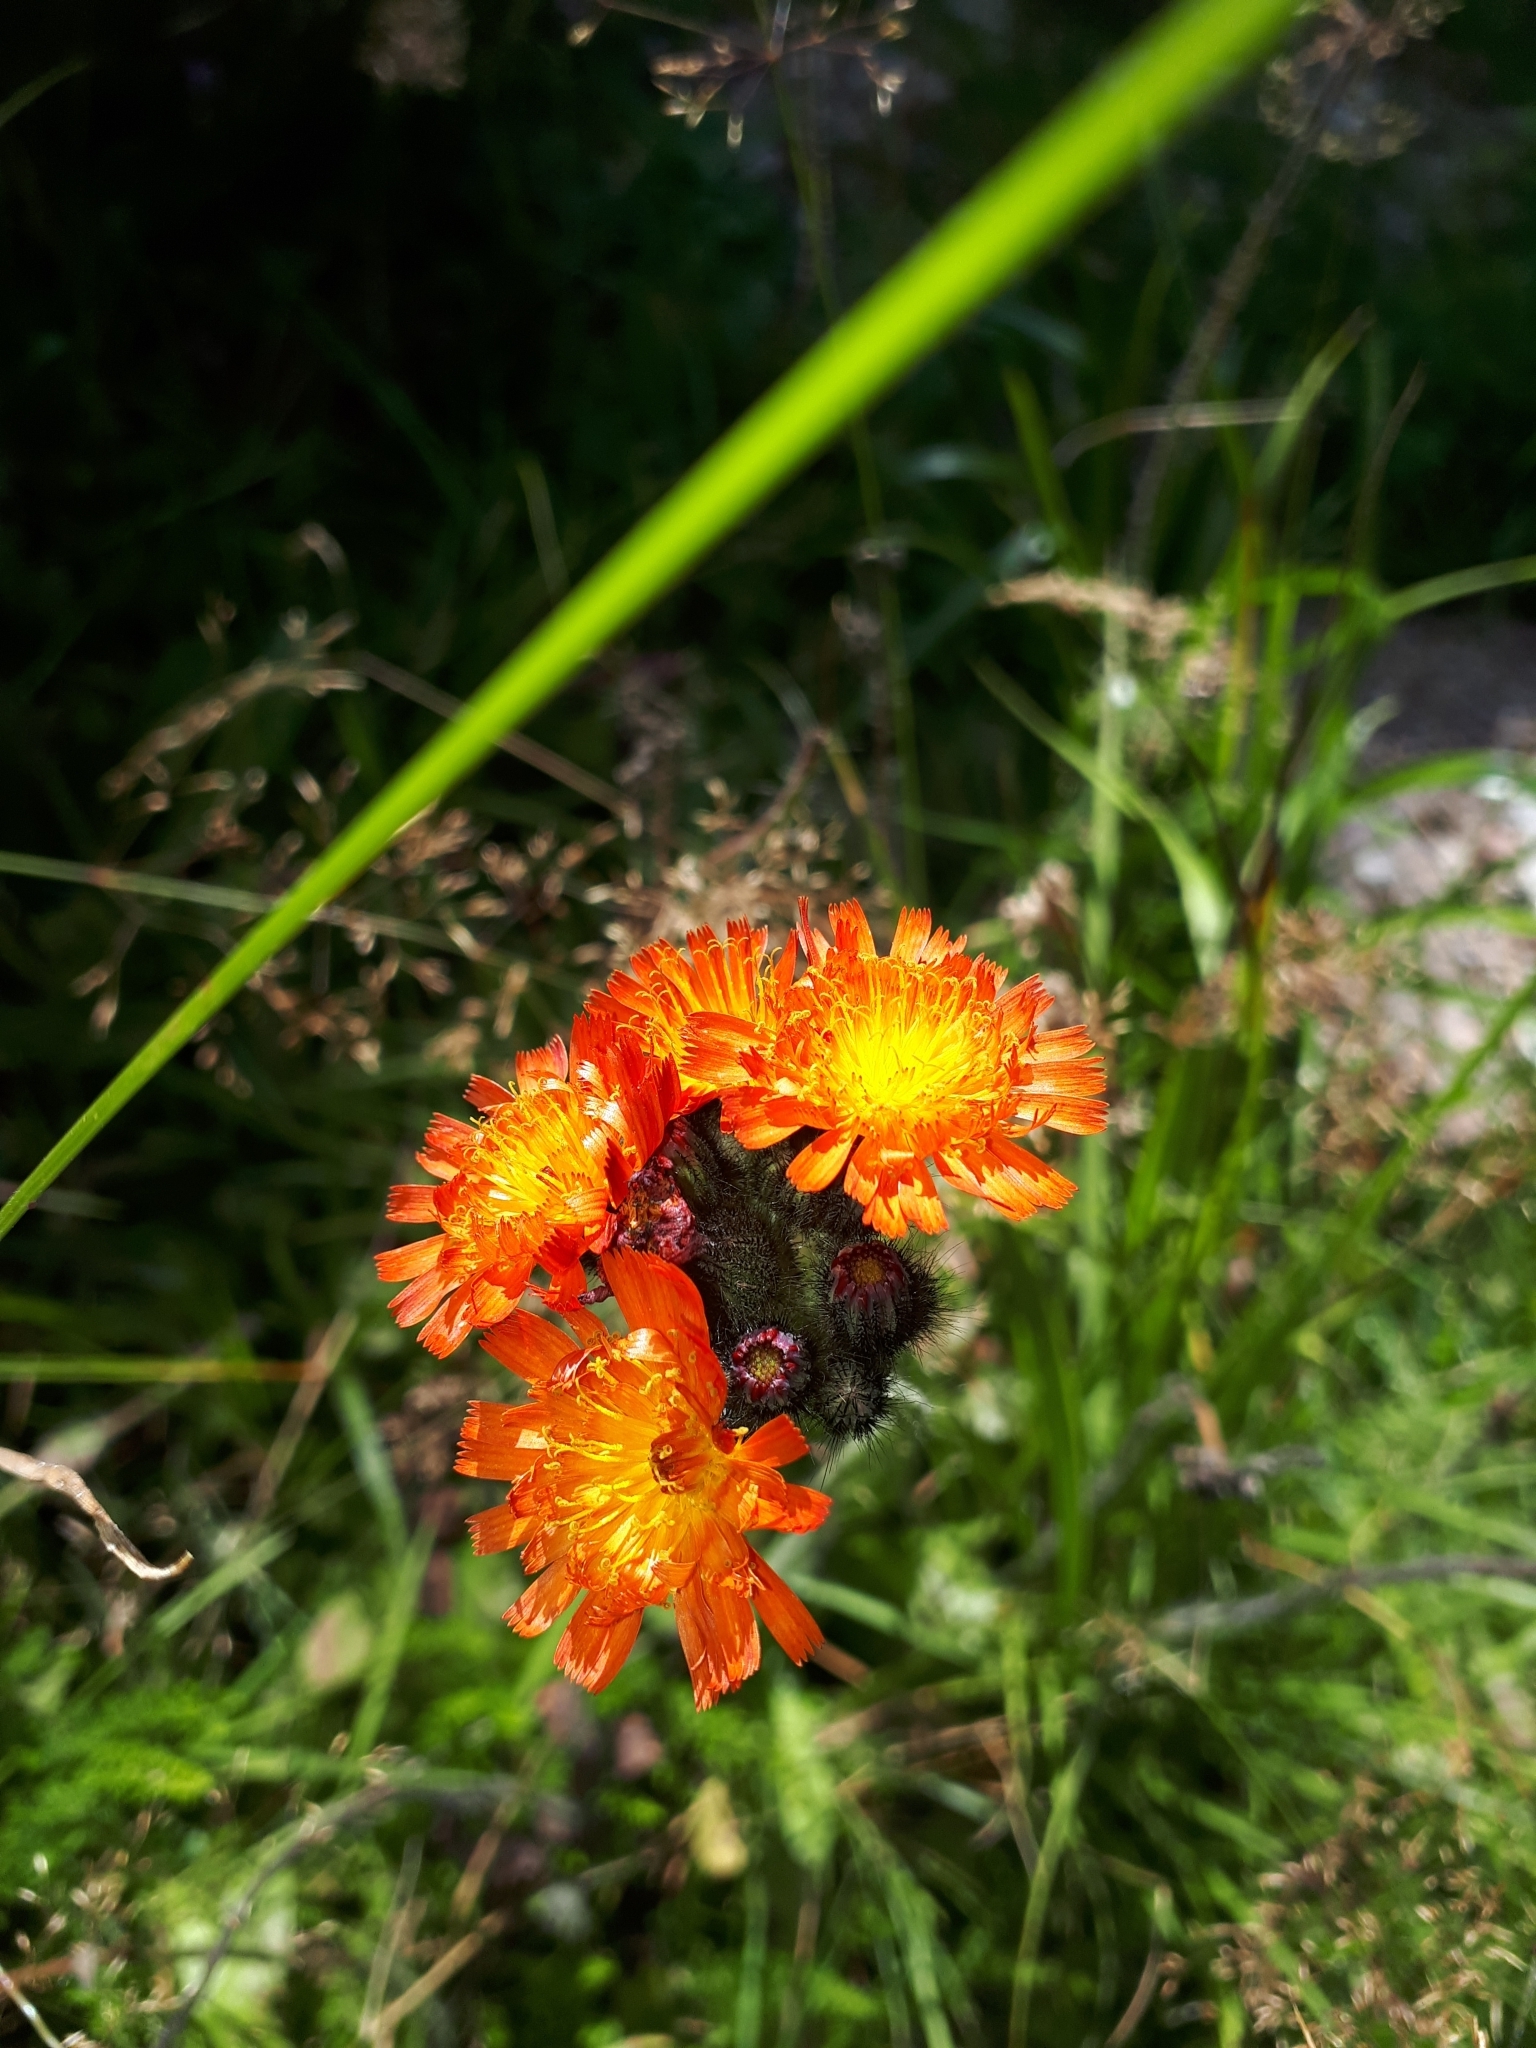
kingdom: Plantae
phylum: Tracheophyta
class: Magnoliopsida
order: Asterales
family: Asteraceae
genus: Pilosella
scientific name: Pilosella aurantiaca
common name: Fox-and-cubs
